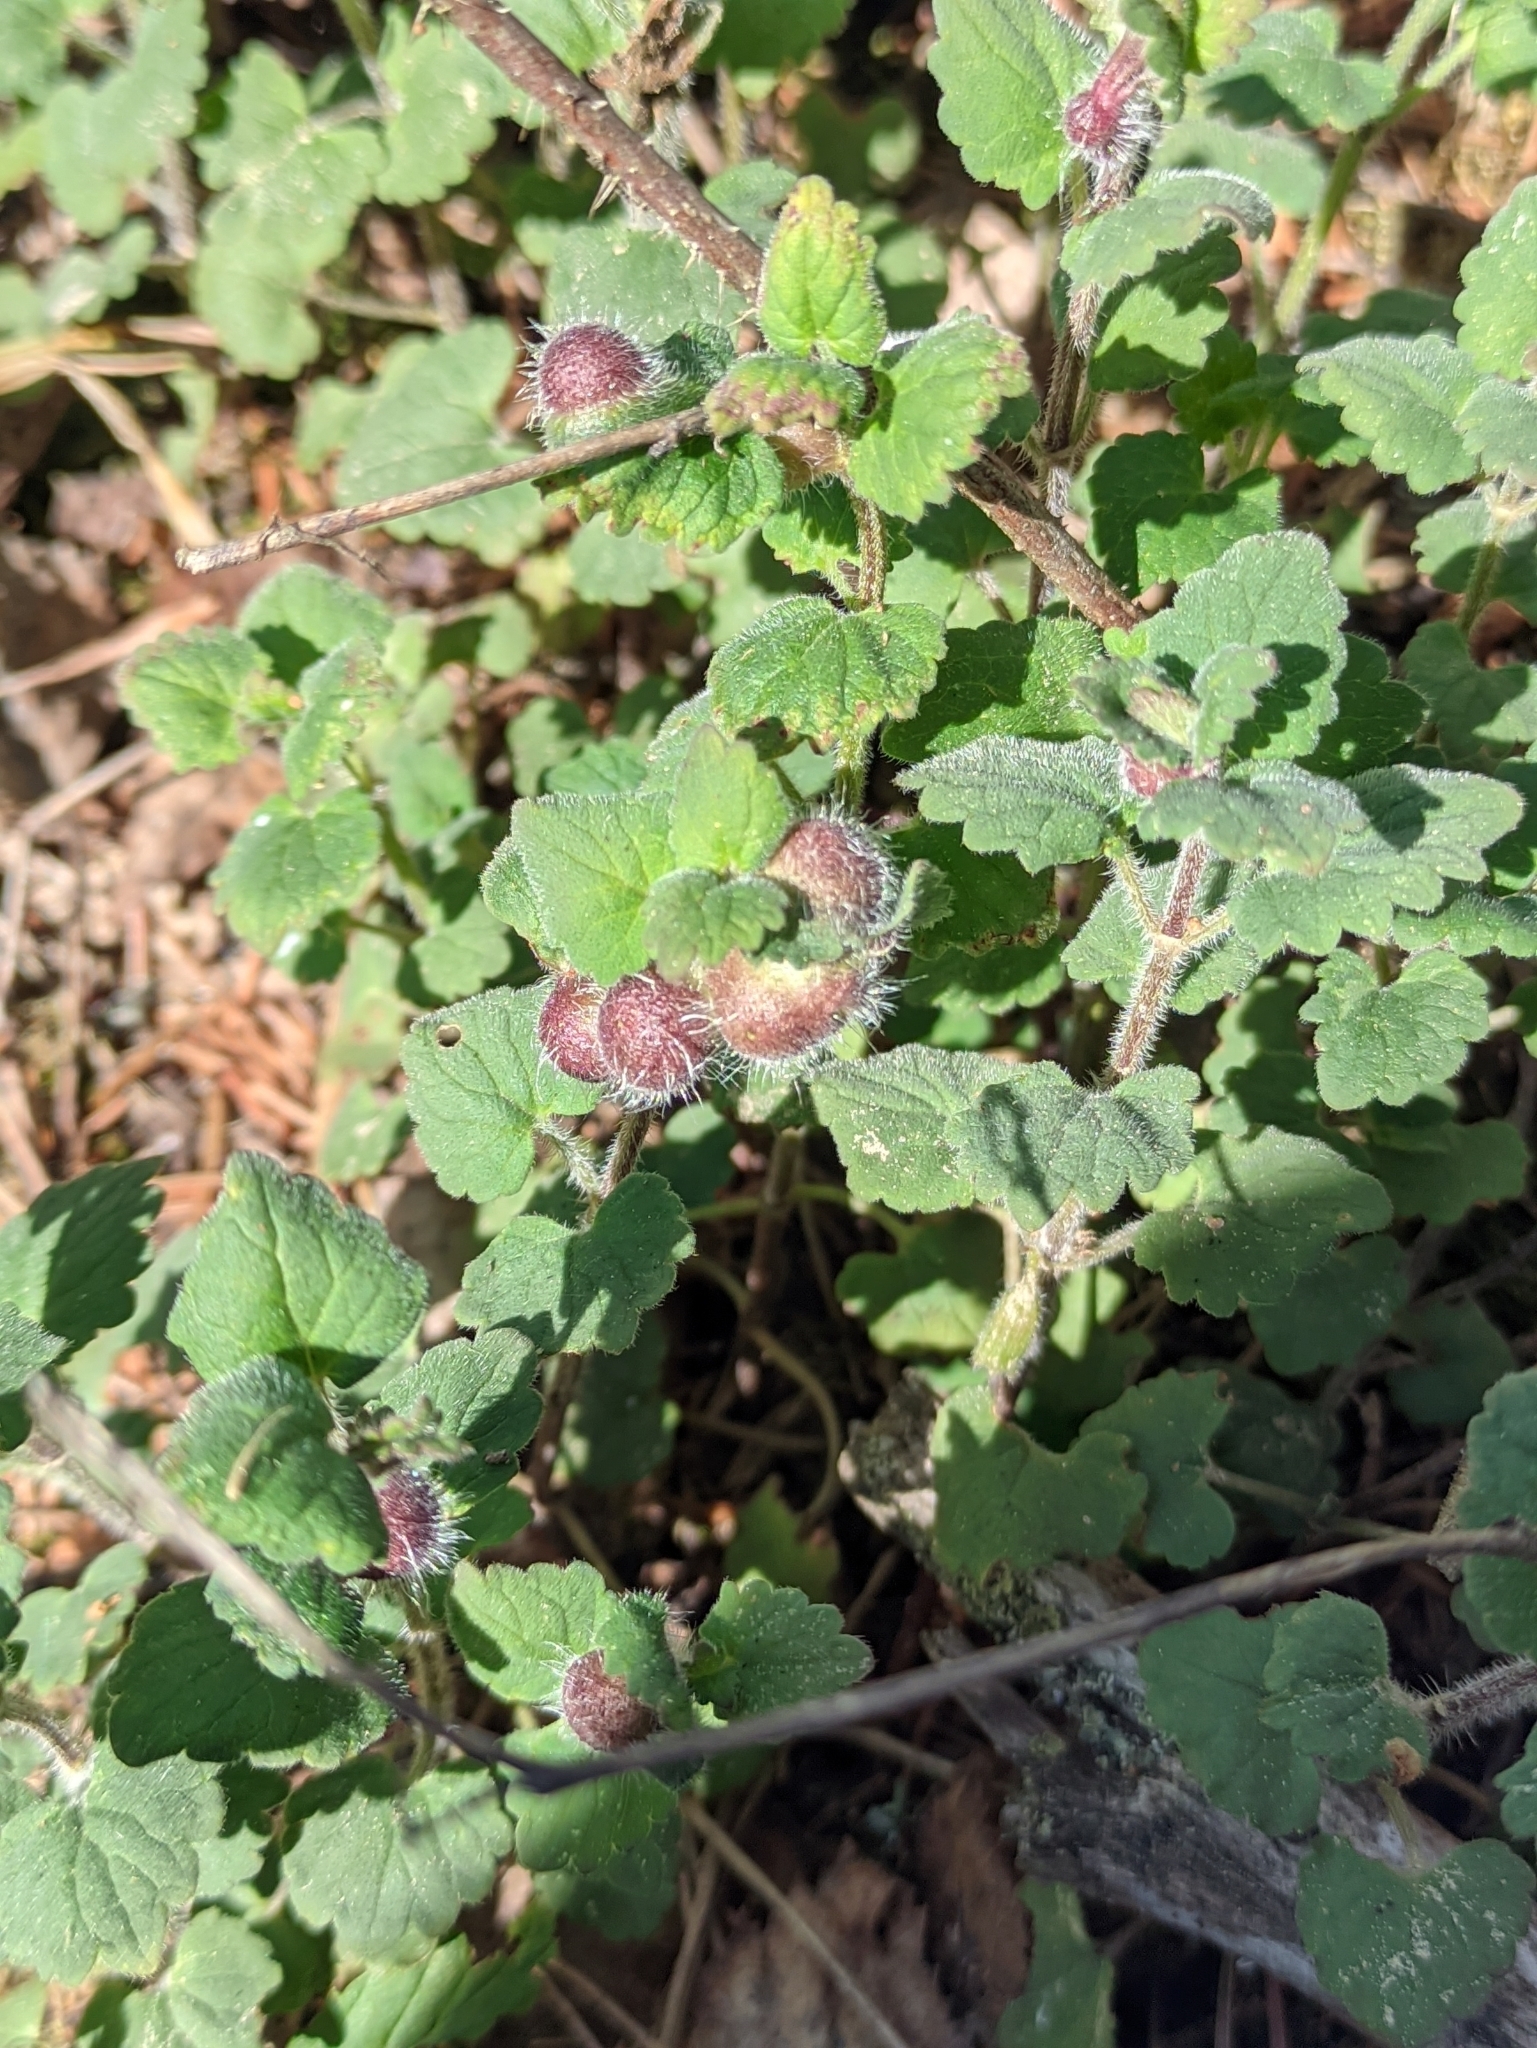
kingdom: Animalia
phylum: Arthropoda
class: Insecta
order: Hymenoptera
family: Cynipidae
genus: Liposthenes
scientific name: Liposthenes glechomae
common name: Gall wasp
